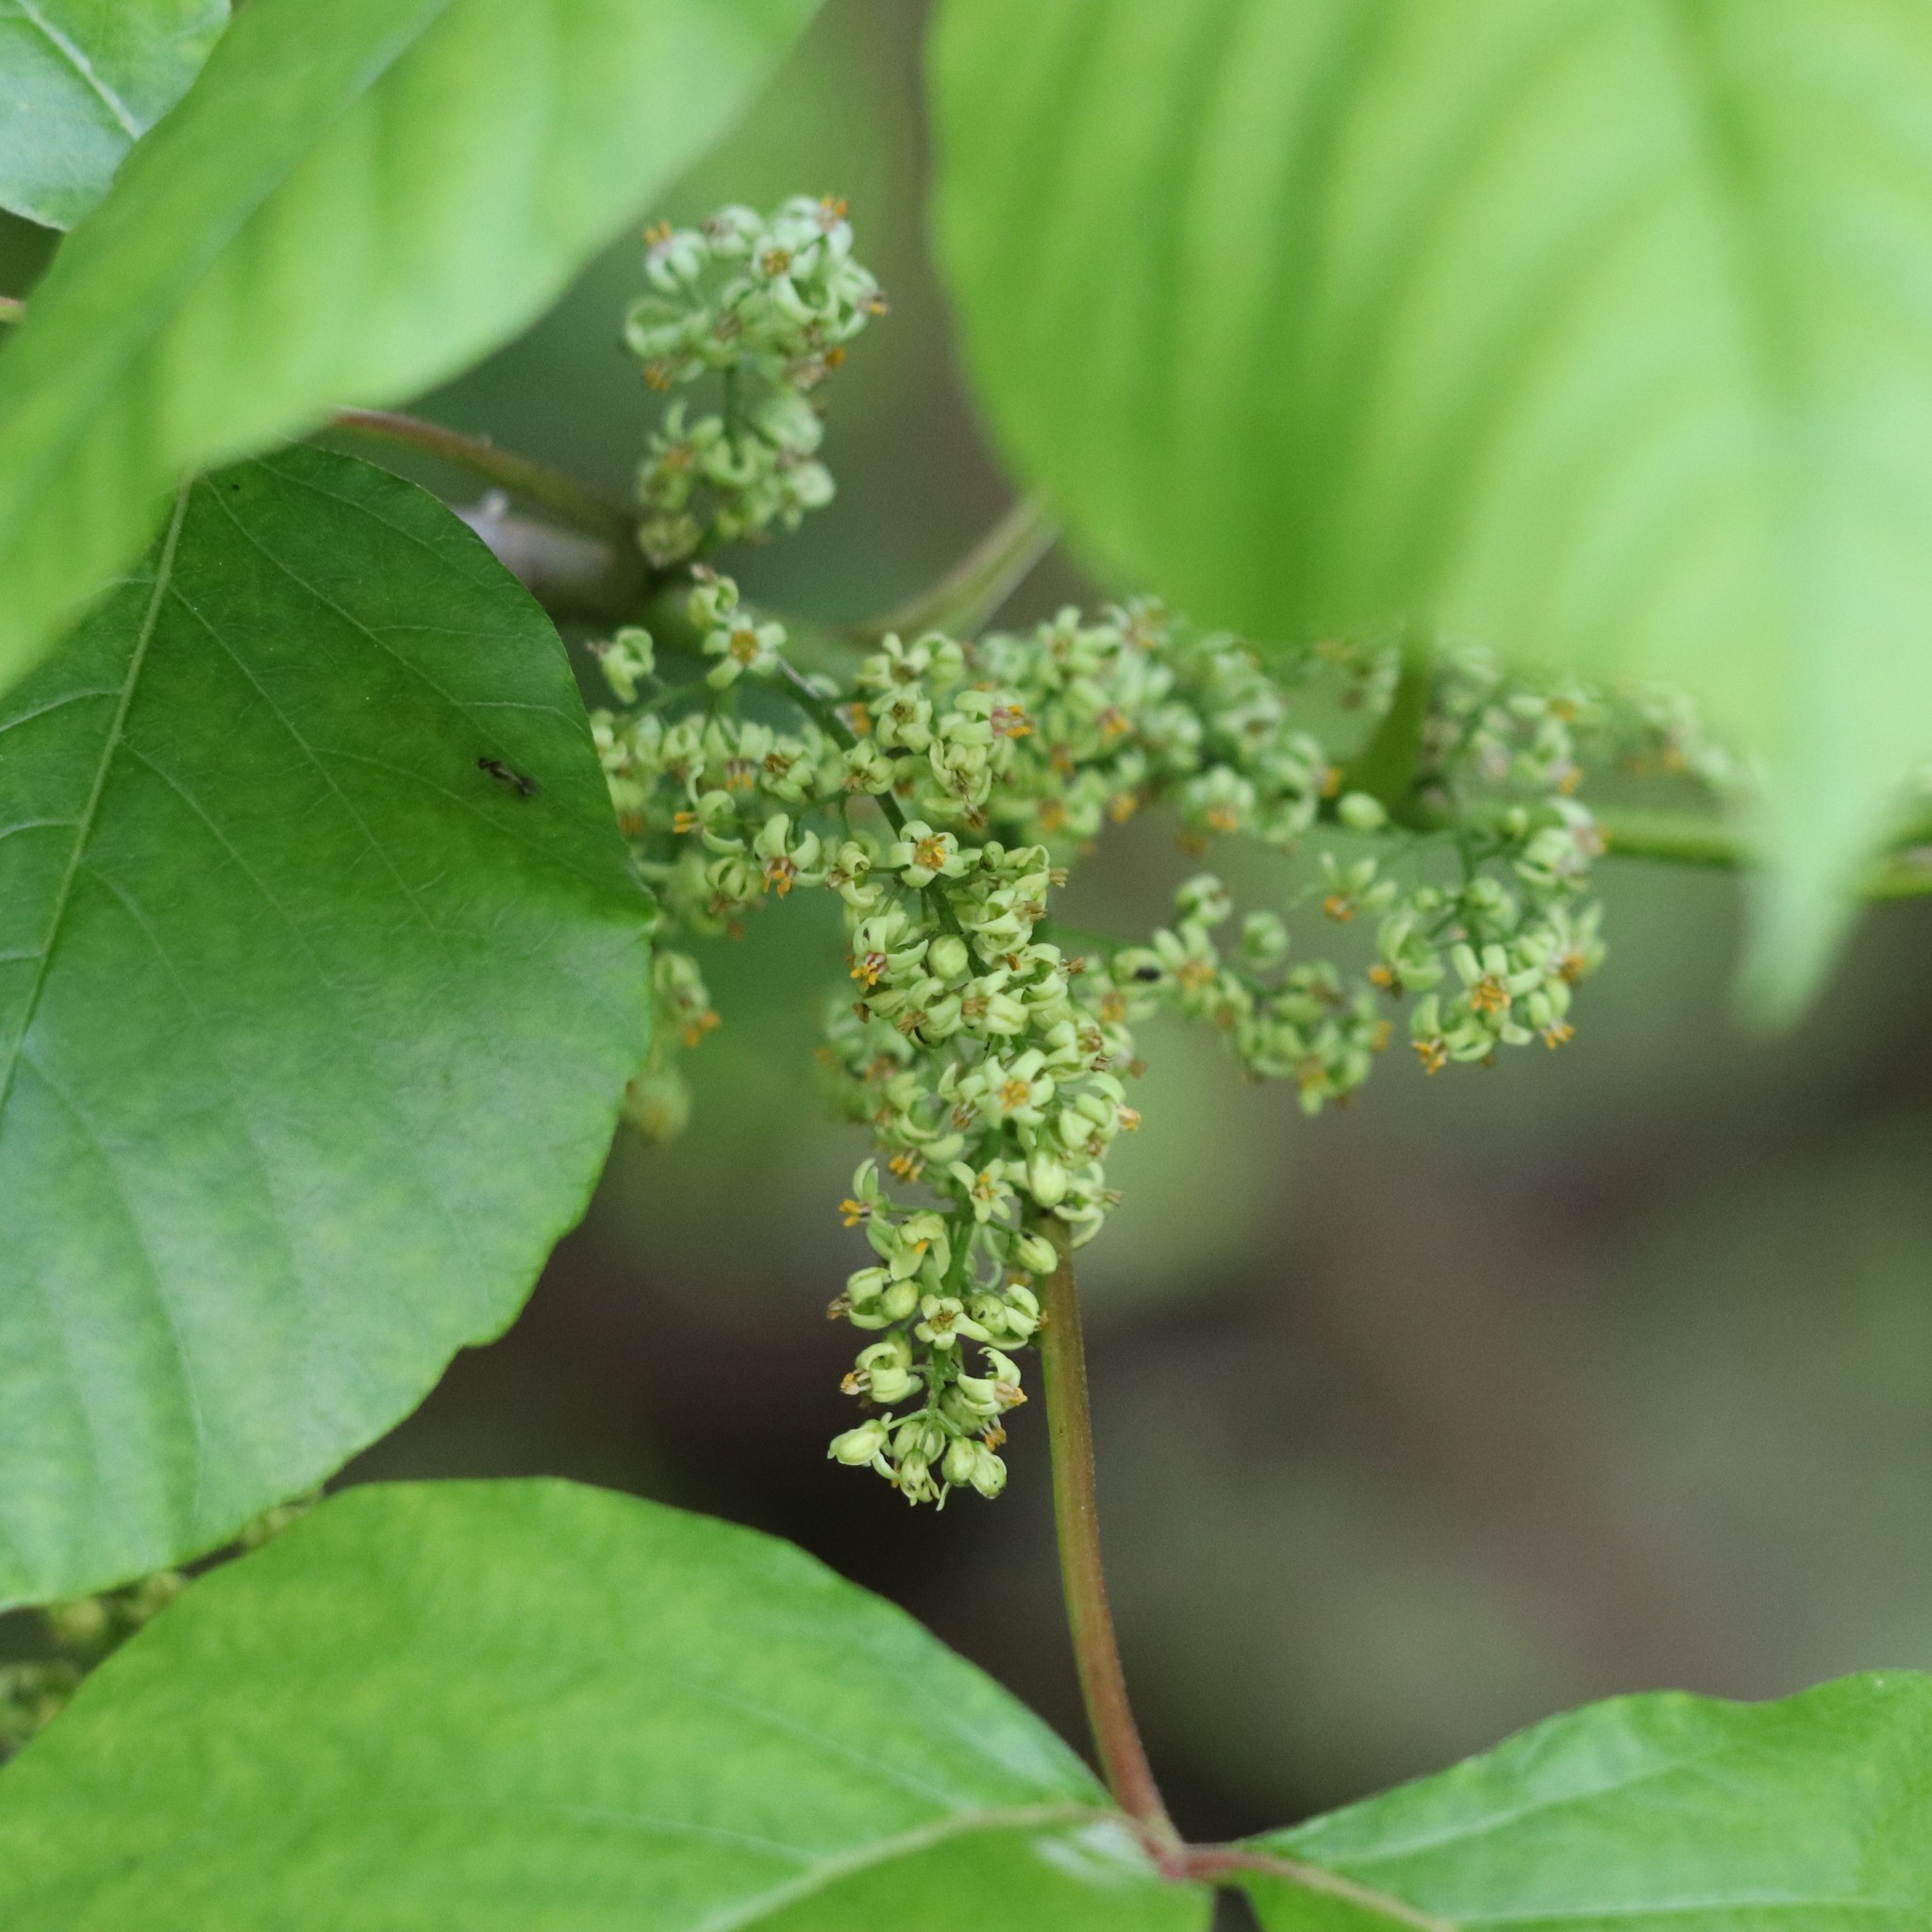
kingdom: Plantae
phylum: Tracheophyta
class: Magnoliopsida
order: Sapindales
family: Anacardiaceae
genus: Toxicodendron
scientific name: Toxicodendron radicans
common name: Poison ivy
